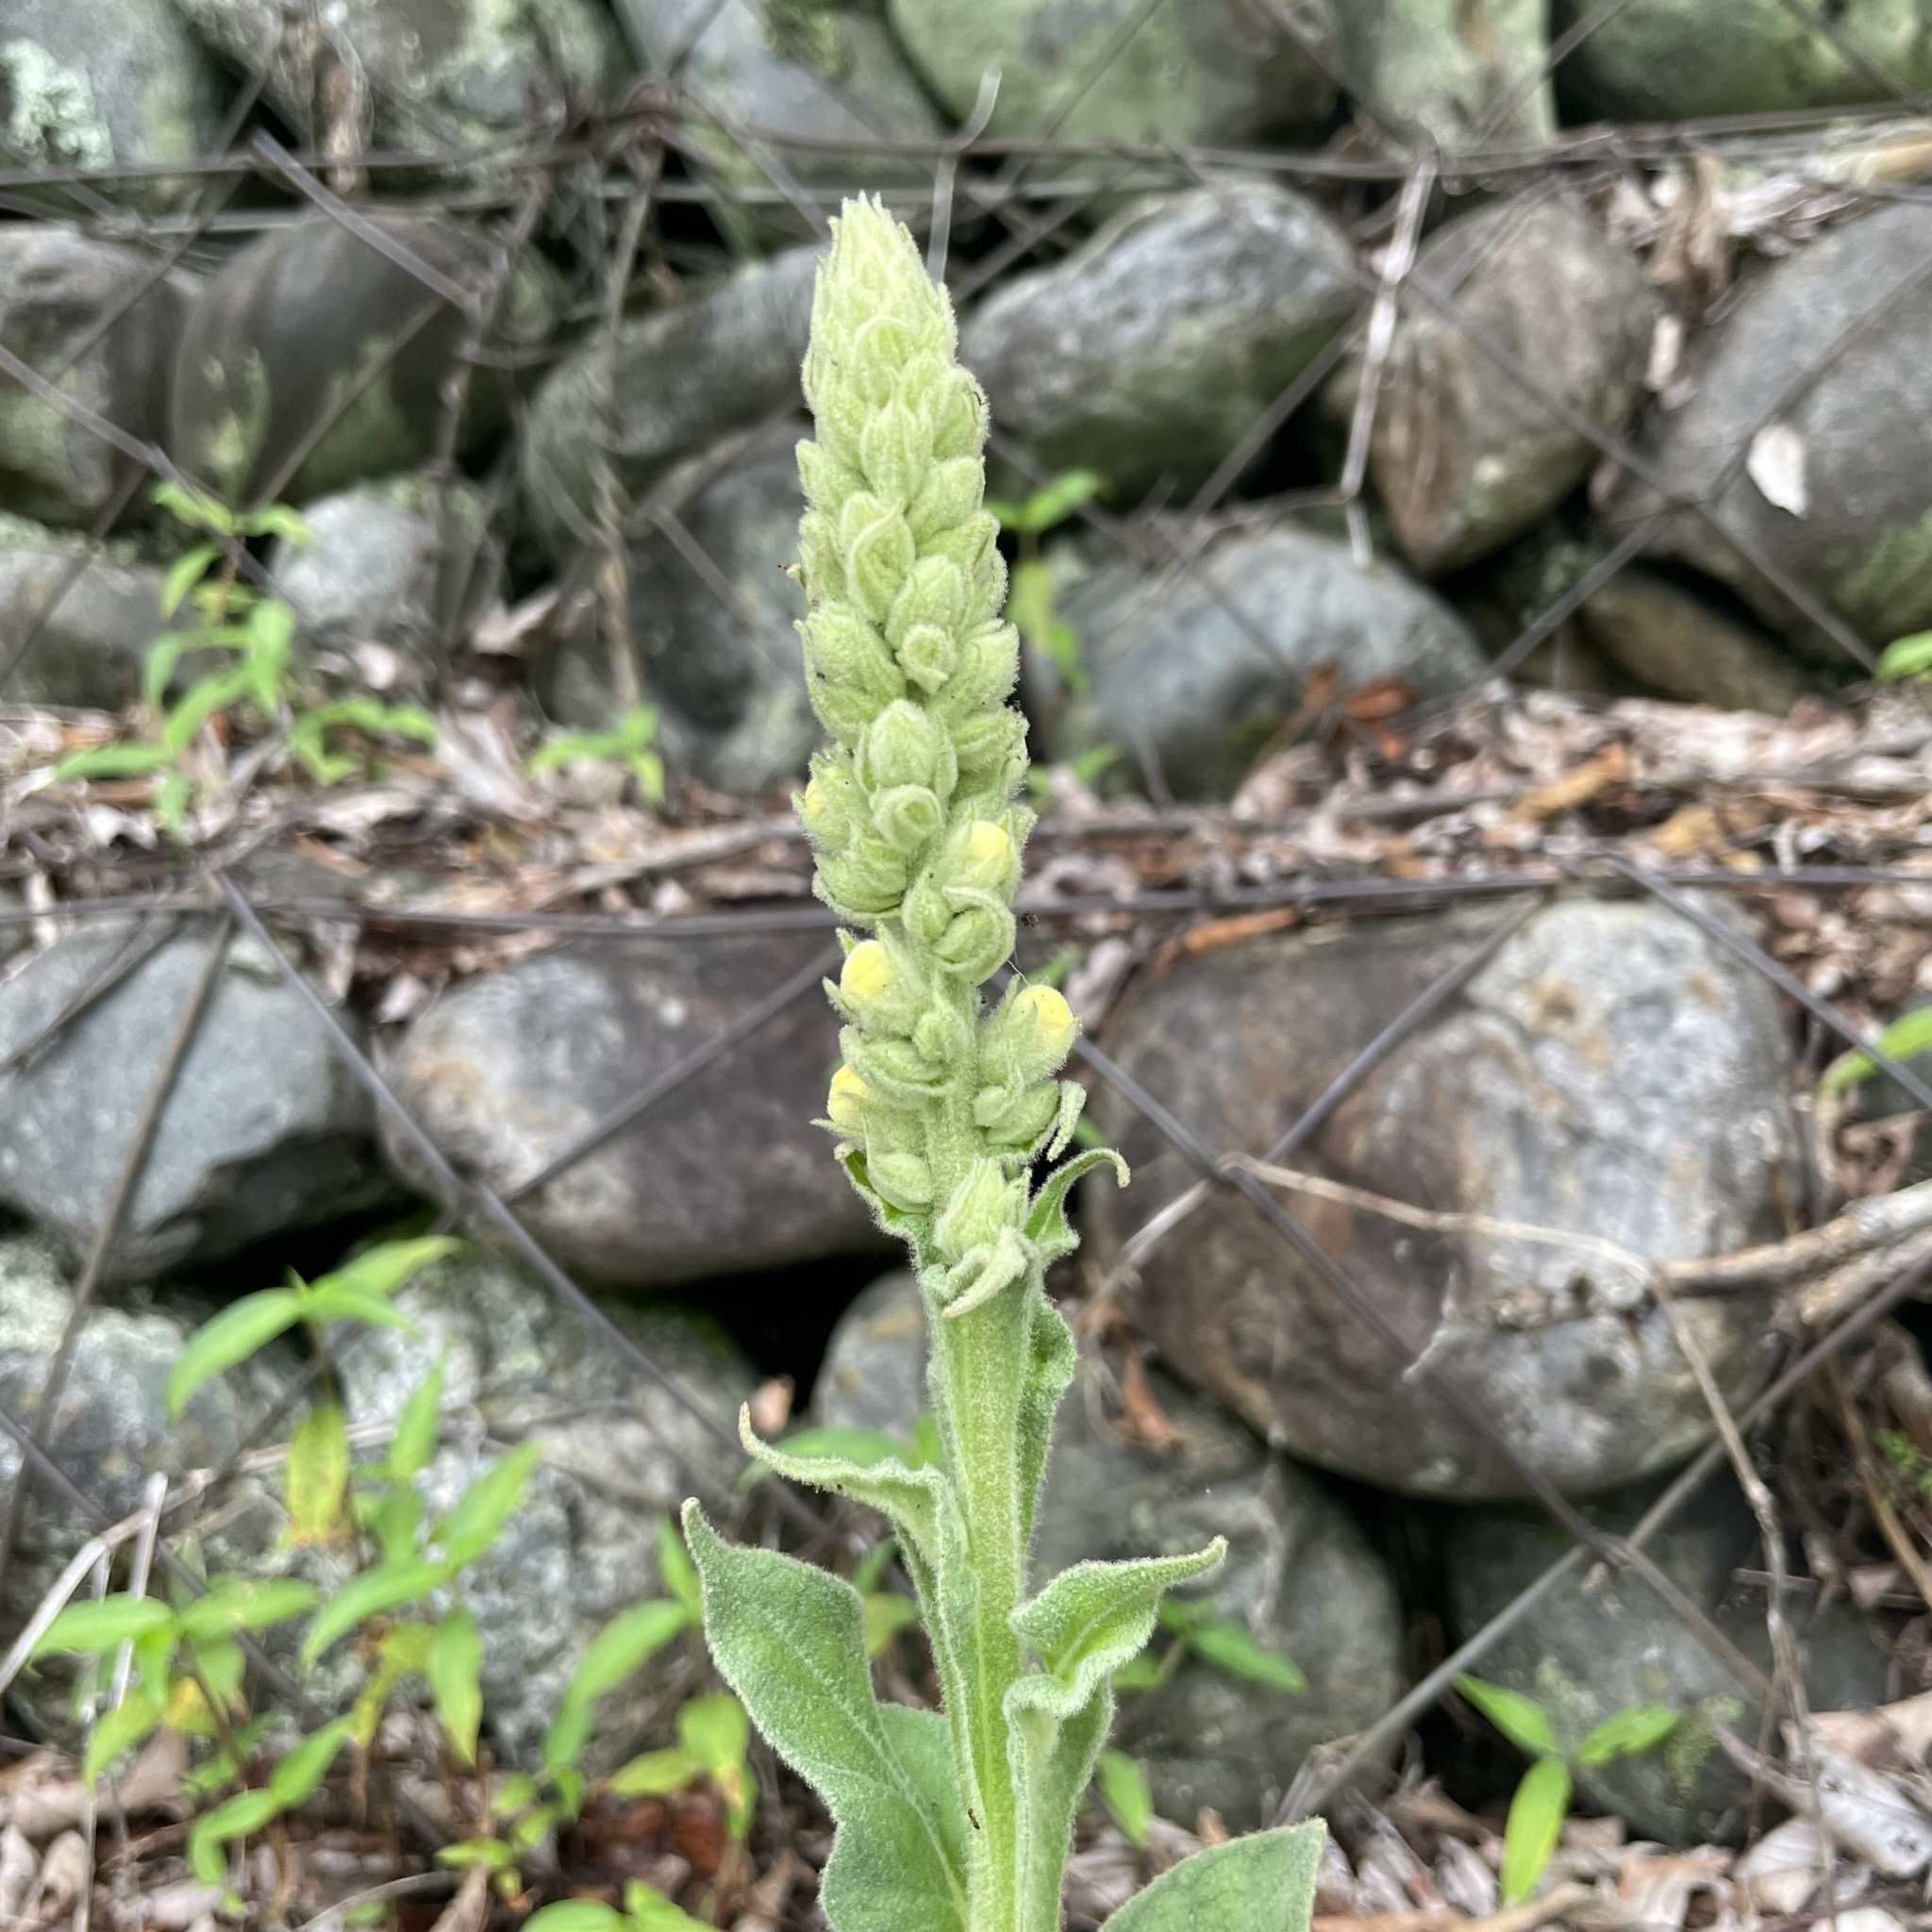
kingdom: Plantae
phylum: Tracheophyta
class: Magnoliopsida
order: Lamiales
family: Scrophulariaceae
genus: Verbascum
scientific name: Verbascum thapsus
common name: Common mullein
